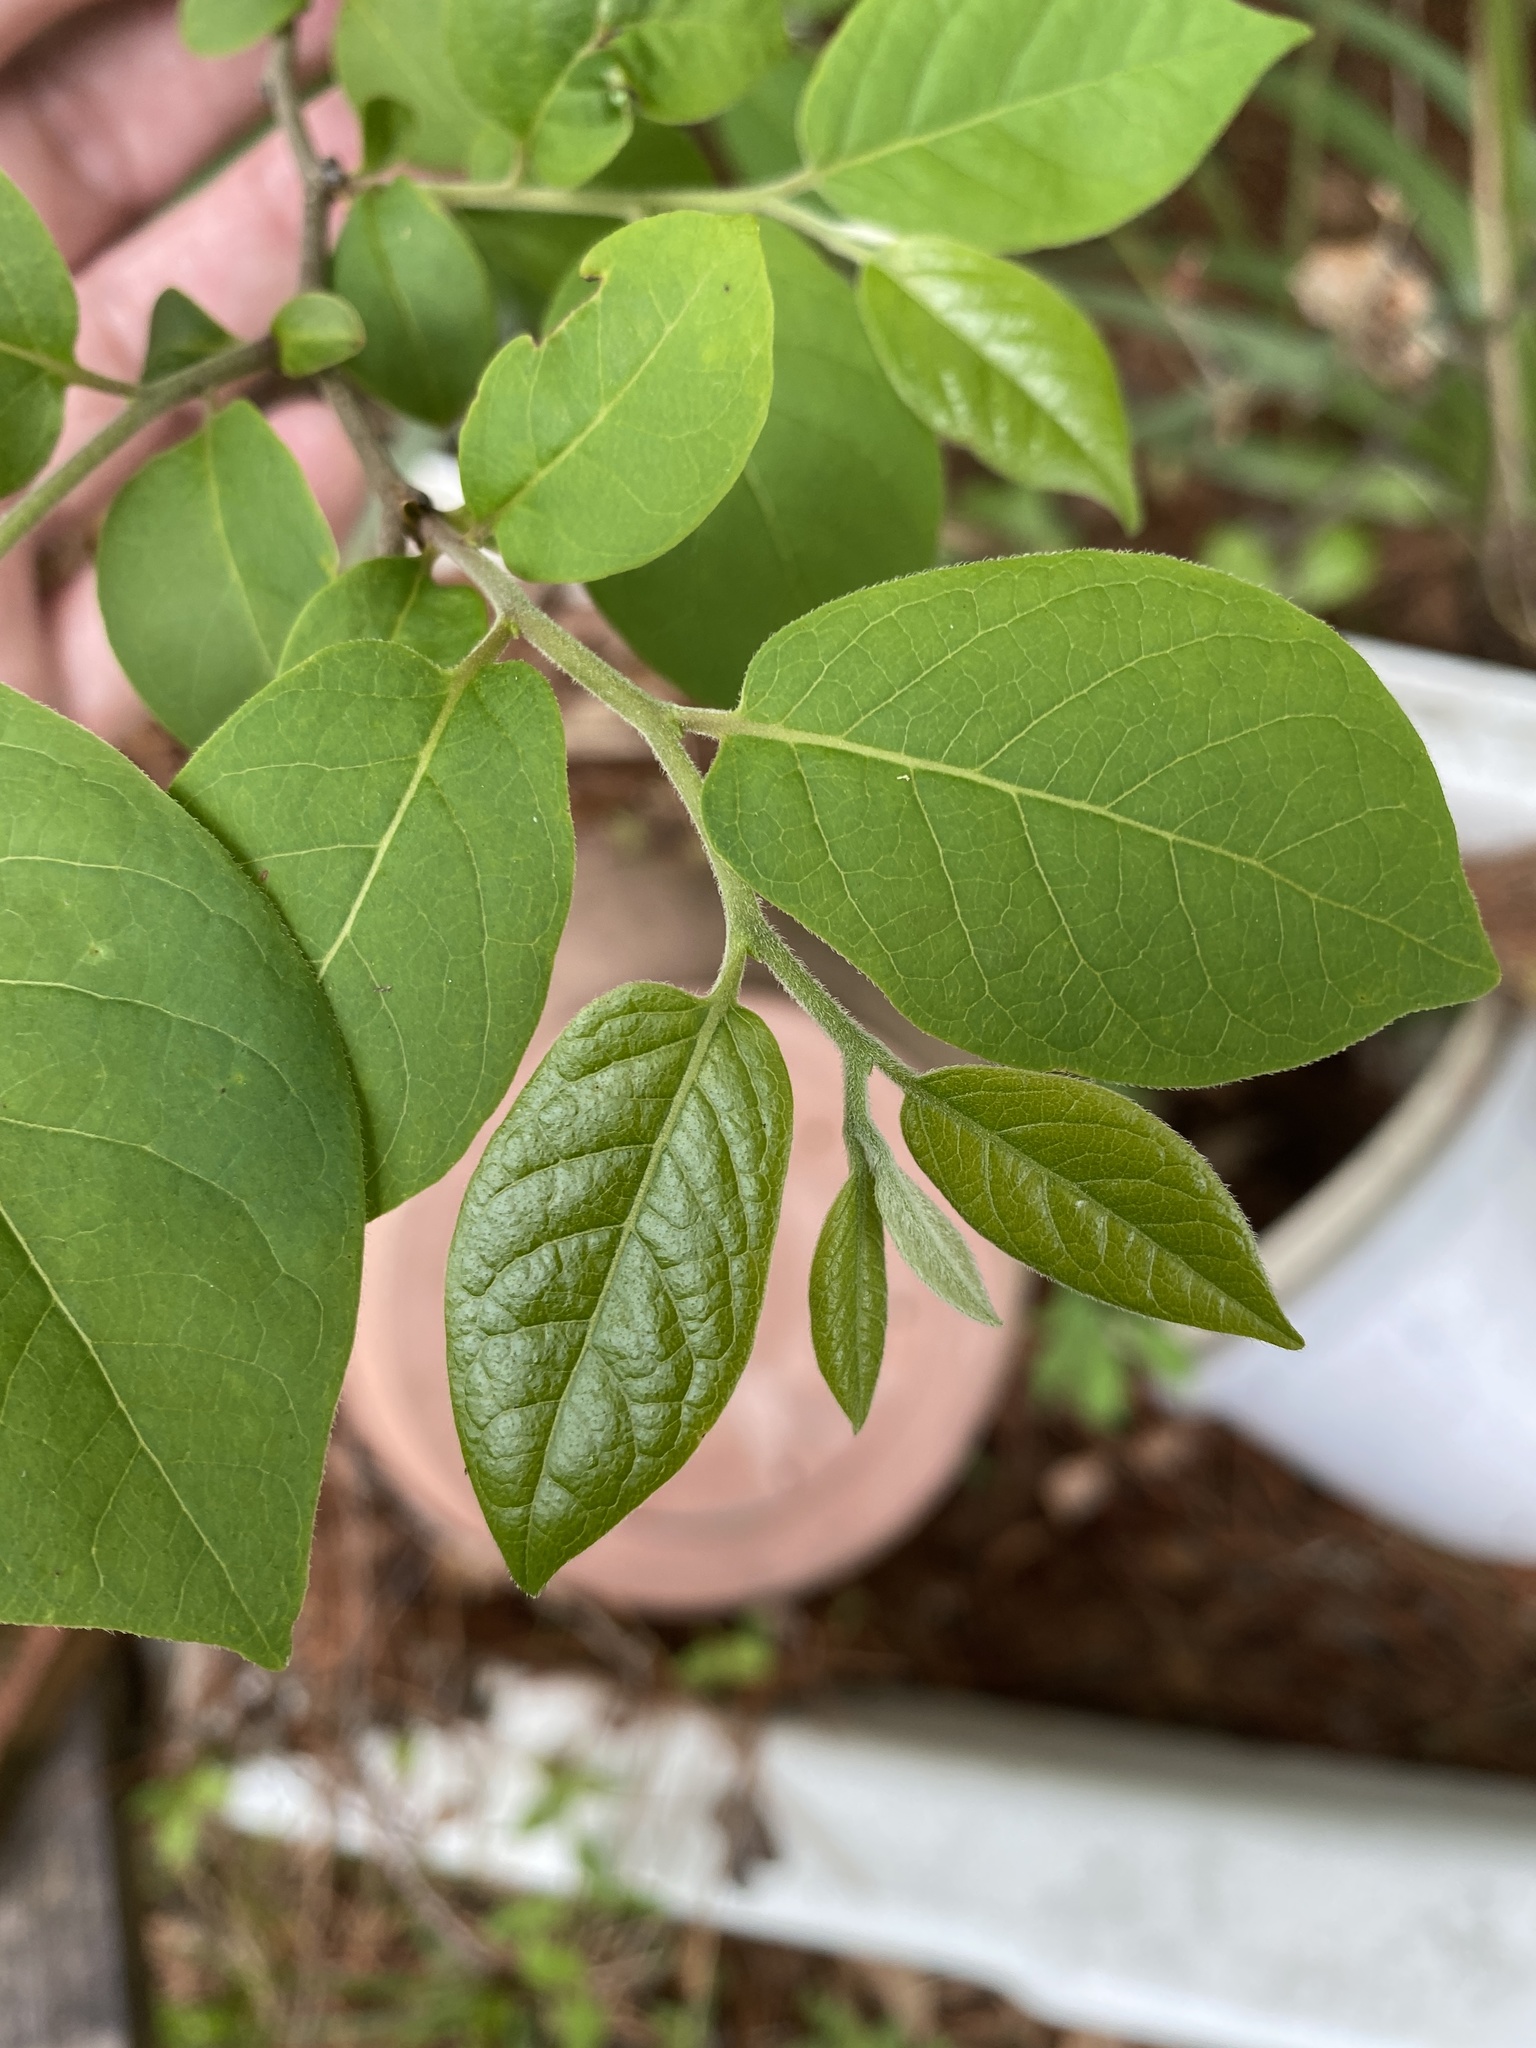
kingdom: Plantae
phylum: Tracheophyta
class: Magnoliopsida
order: Ericales
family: Ebenaceae
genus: Diospyros
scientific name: Diospyros virginiana
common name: Persimmon
